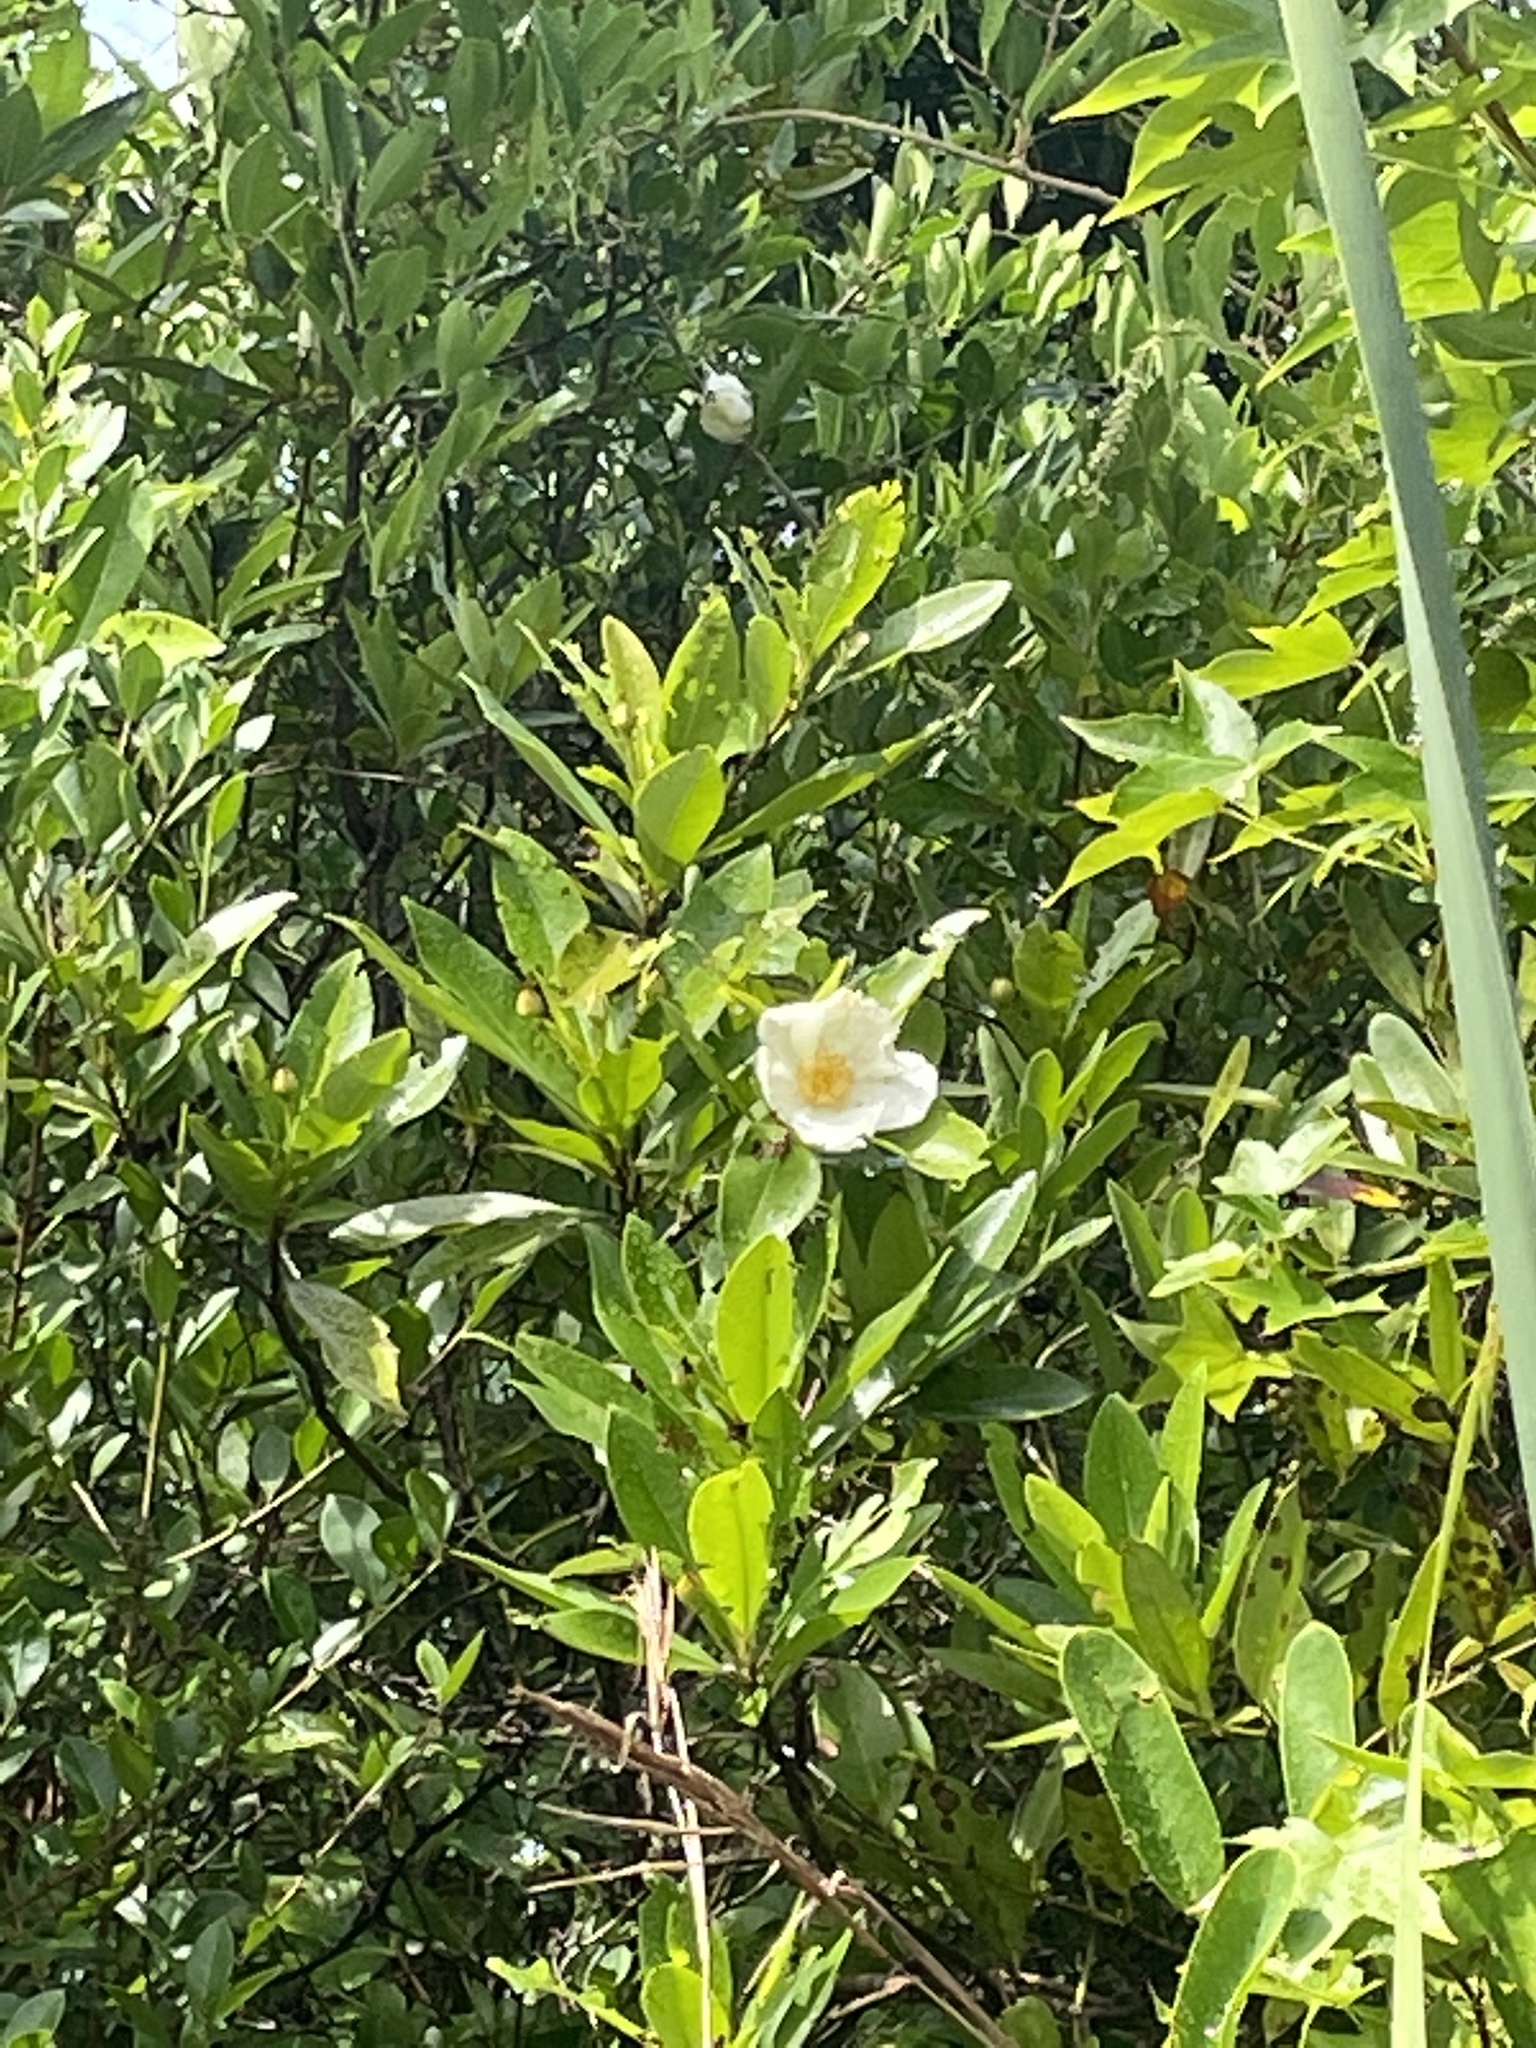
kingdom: Plantae
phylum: Tracheophyta
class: Magnoliopsida
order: Ericales
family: Theaceae
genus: Gordonia
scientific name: Gordonia lasianthus
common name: Loblolly bay
